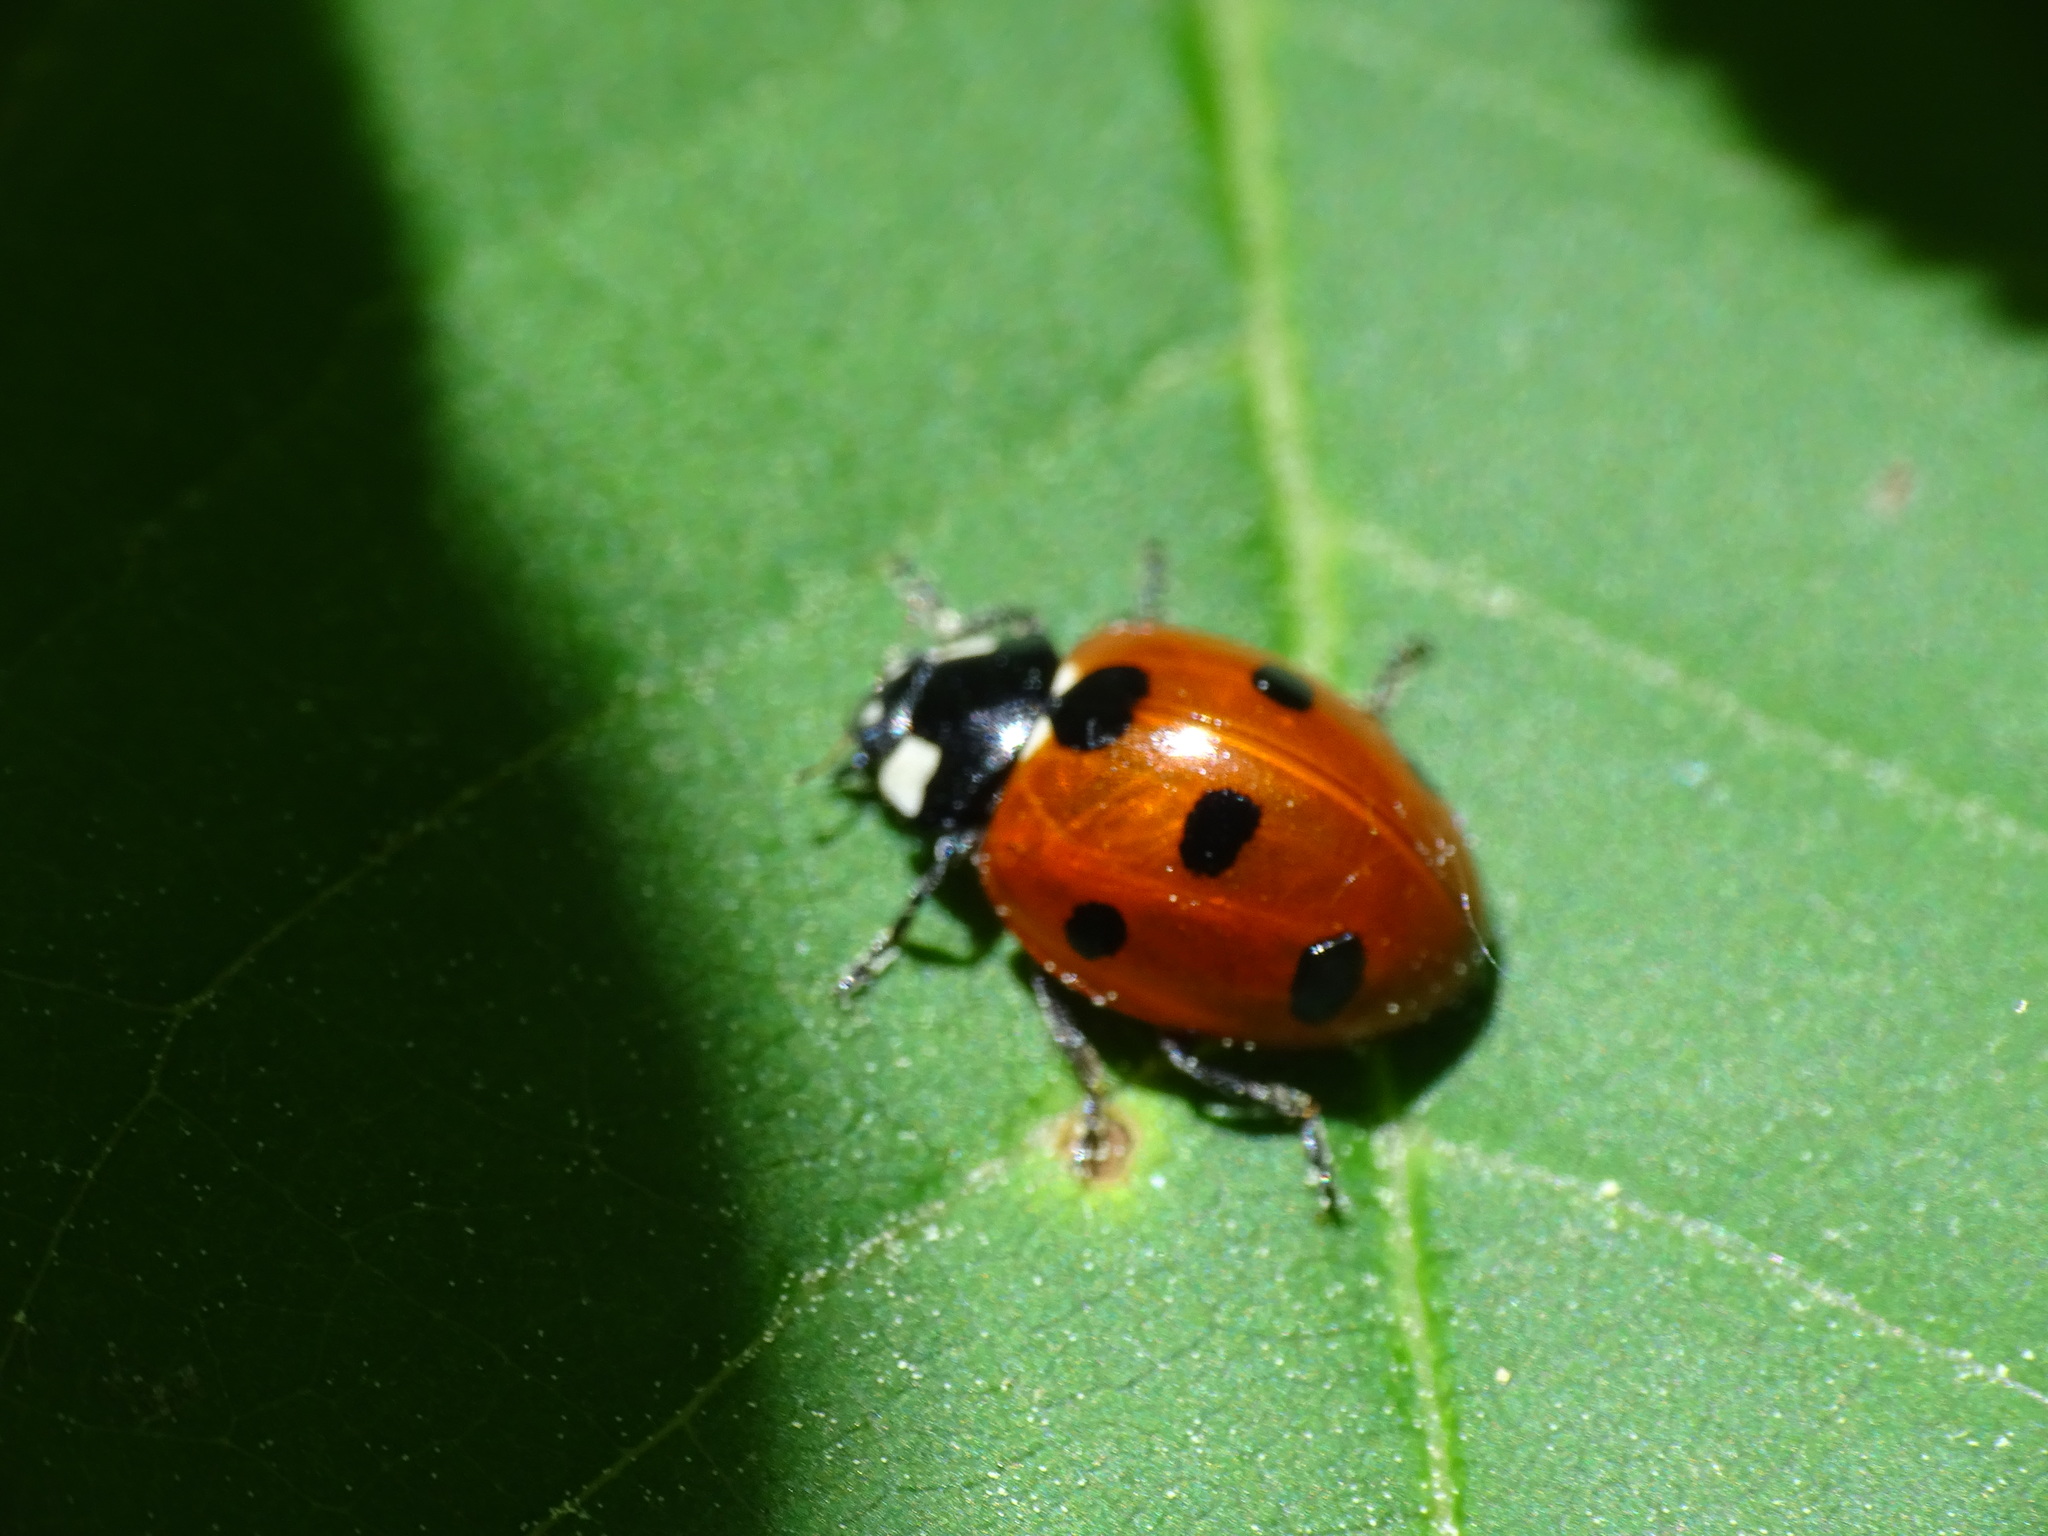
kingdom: Animalia
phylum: Arthropoda
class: Insecta
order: Coleoptera
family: Coccinellidae
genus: Coccinella
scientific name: Coccinella septempunctata
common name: Sevenspotted lady beetle
